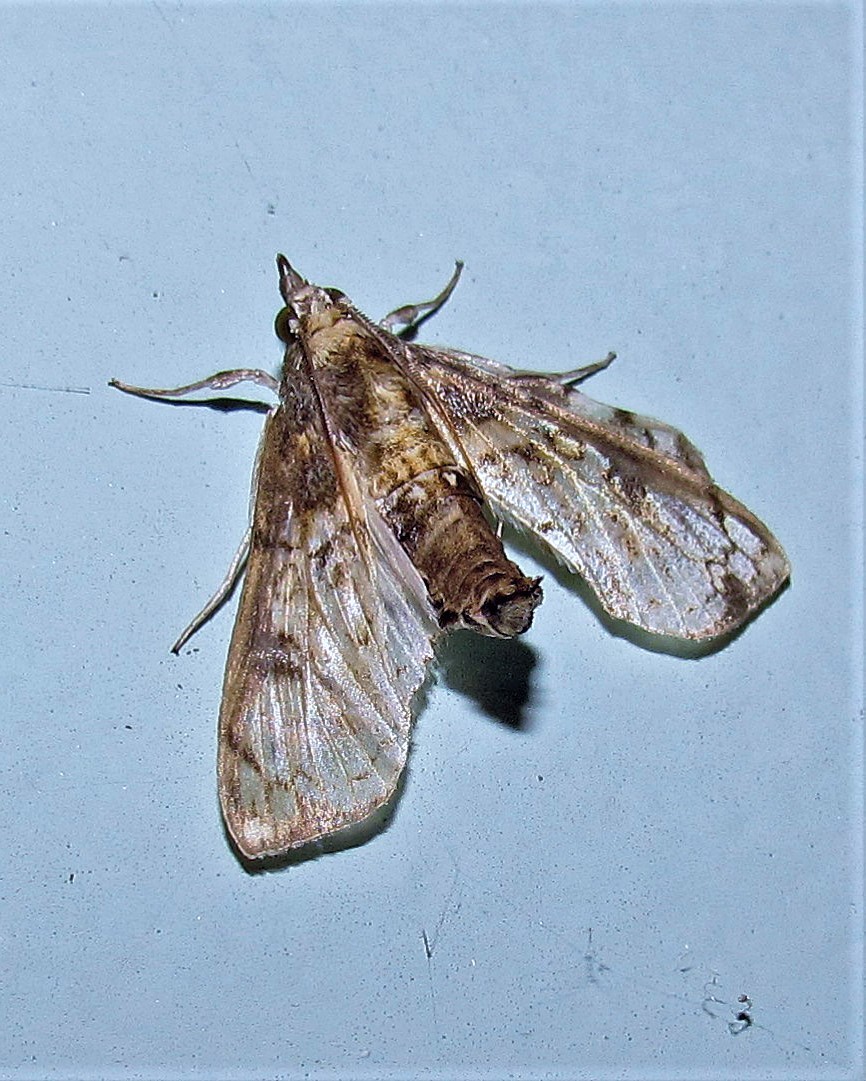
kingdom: Animalia
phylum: Arthropoda
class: Insecta
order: Lepidoptera
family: Crambidae
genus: Megastes
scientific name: Megastes grandalis
